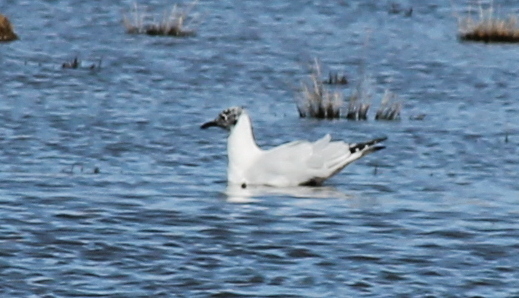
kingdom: Animalia
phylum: Chordata
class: Aves
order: Charadriiformes
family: Laridae
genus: Chroicocephalus
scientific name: Chroicocephalus serranus
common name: Andean gull
